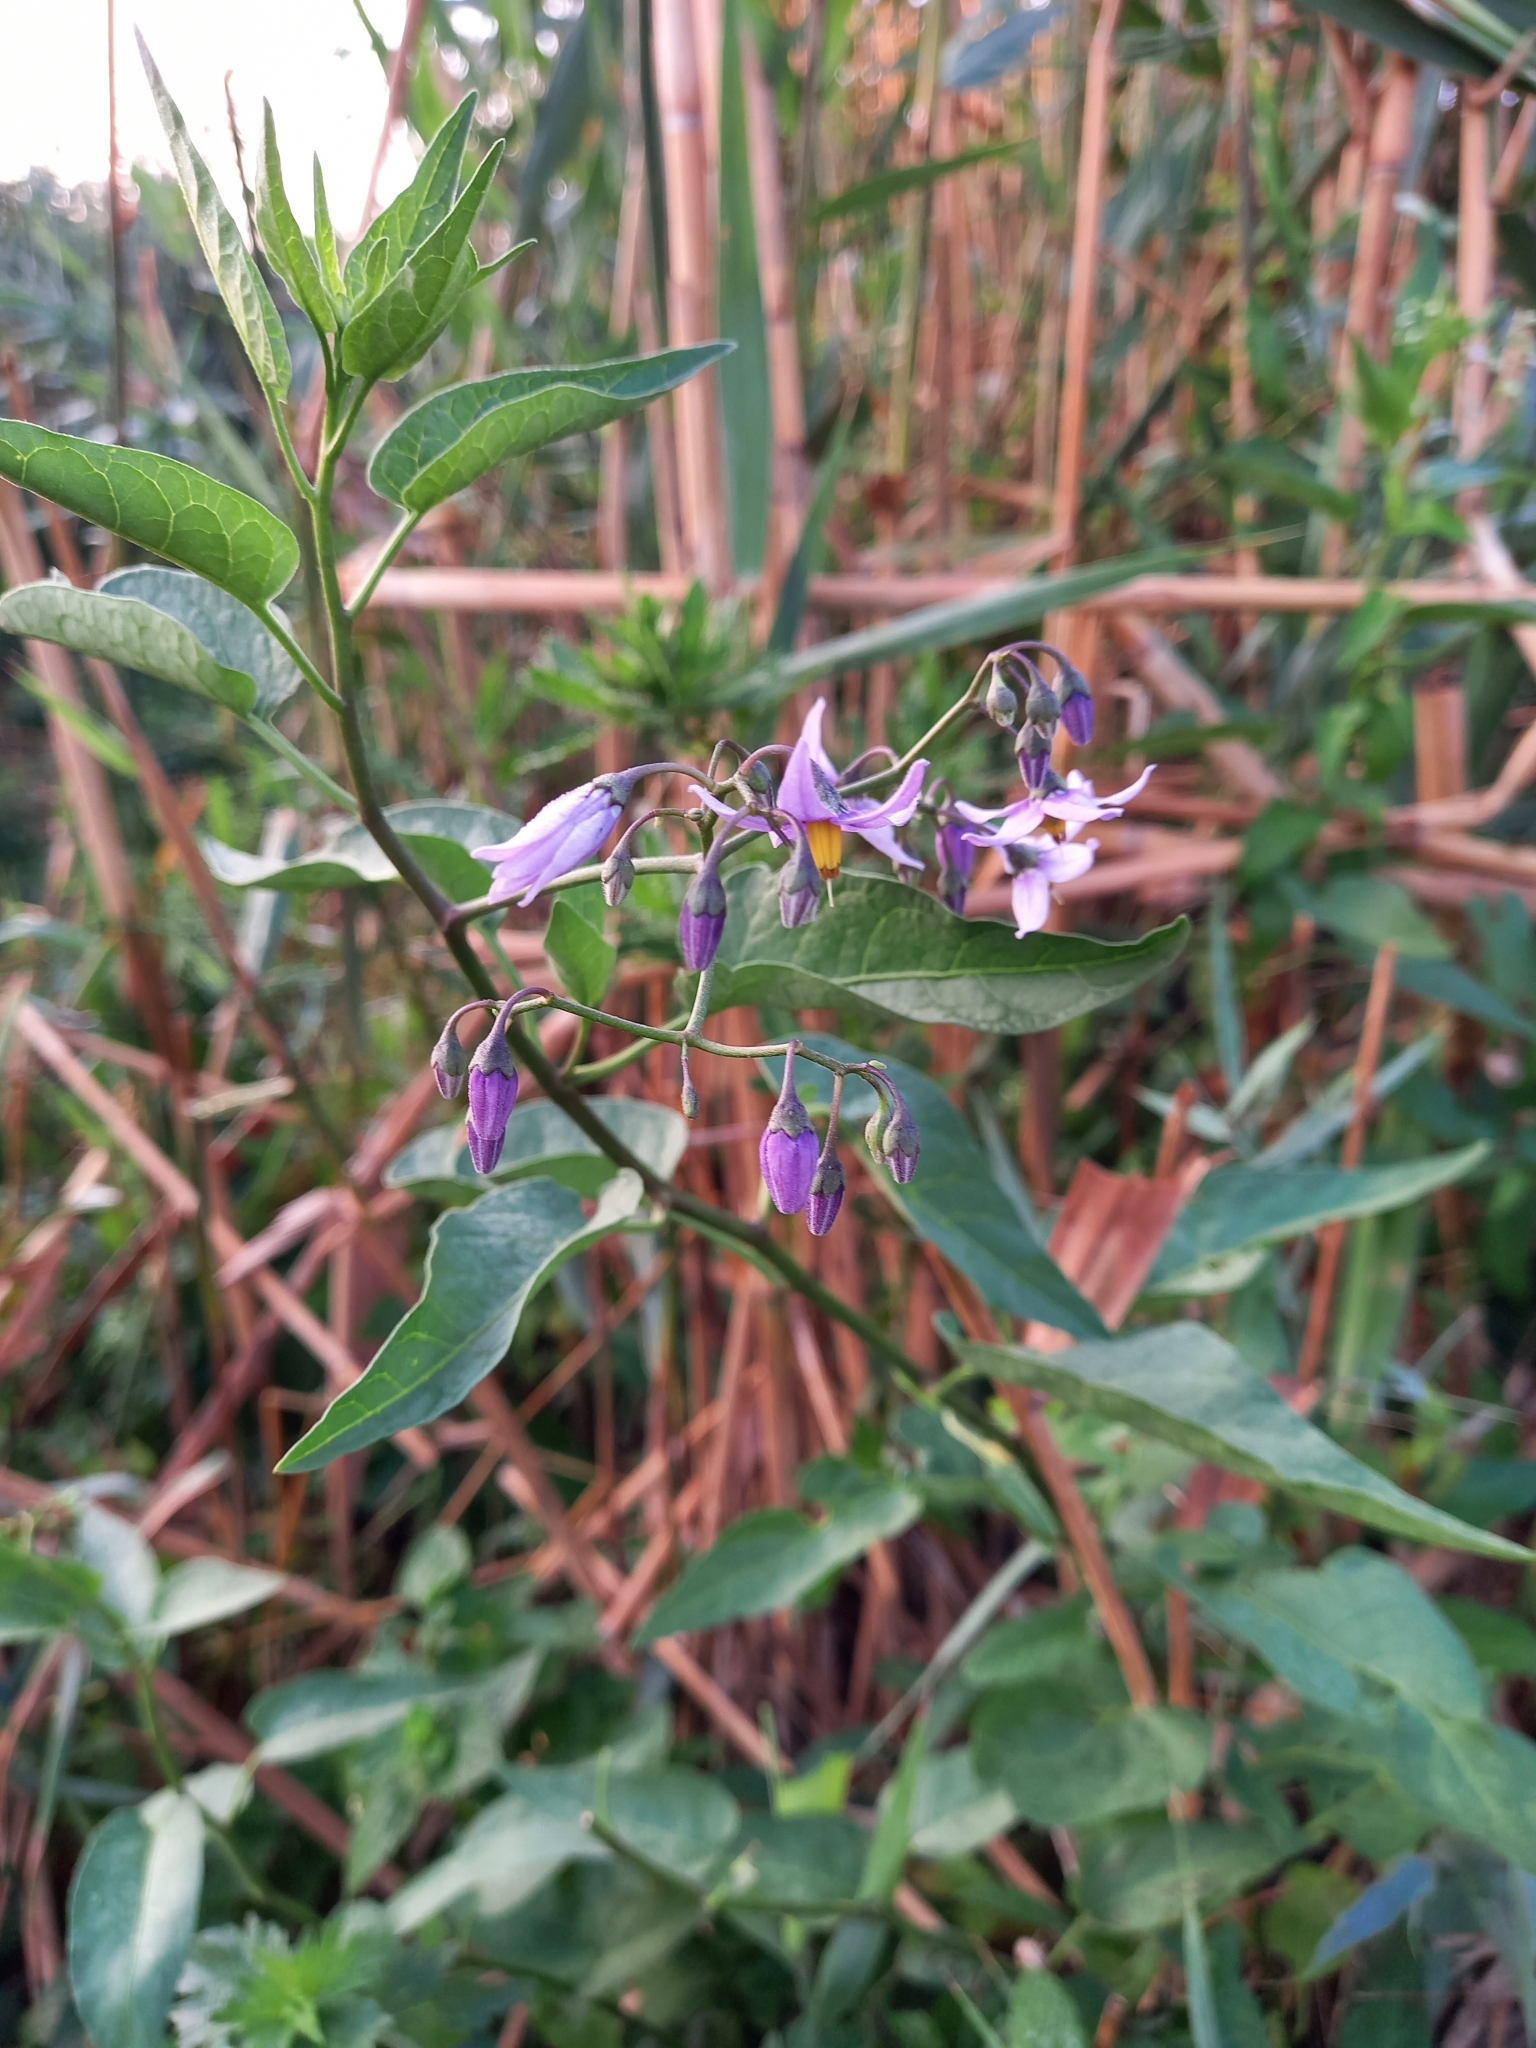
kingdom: Plantae
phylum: Tracheophyta
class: Magnoliopsida
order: Solanales
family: Solanaceae
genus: Solanum
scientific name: Solanum dulcamara
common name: Climbing nightshade
